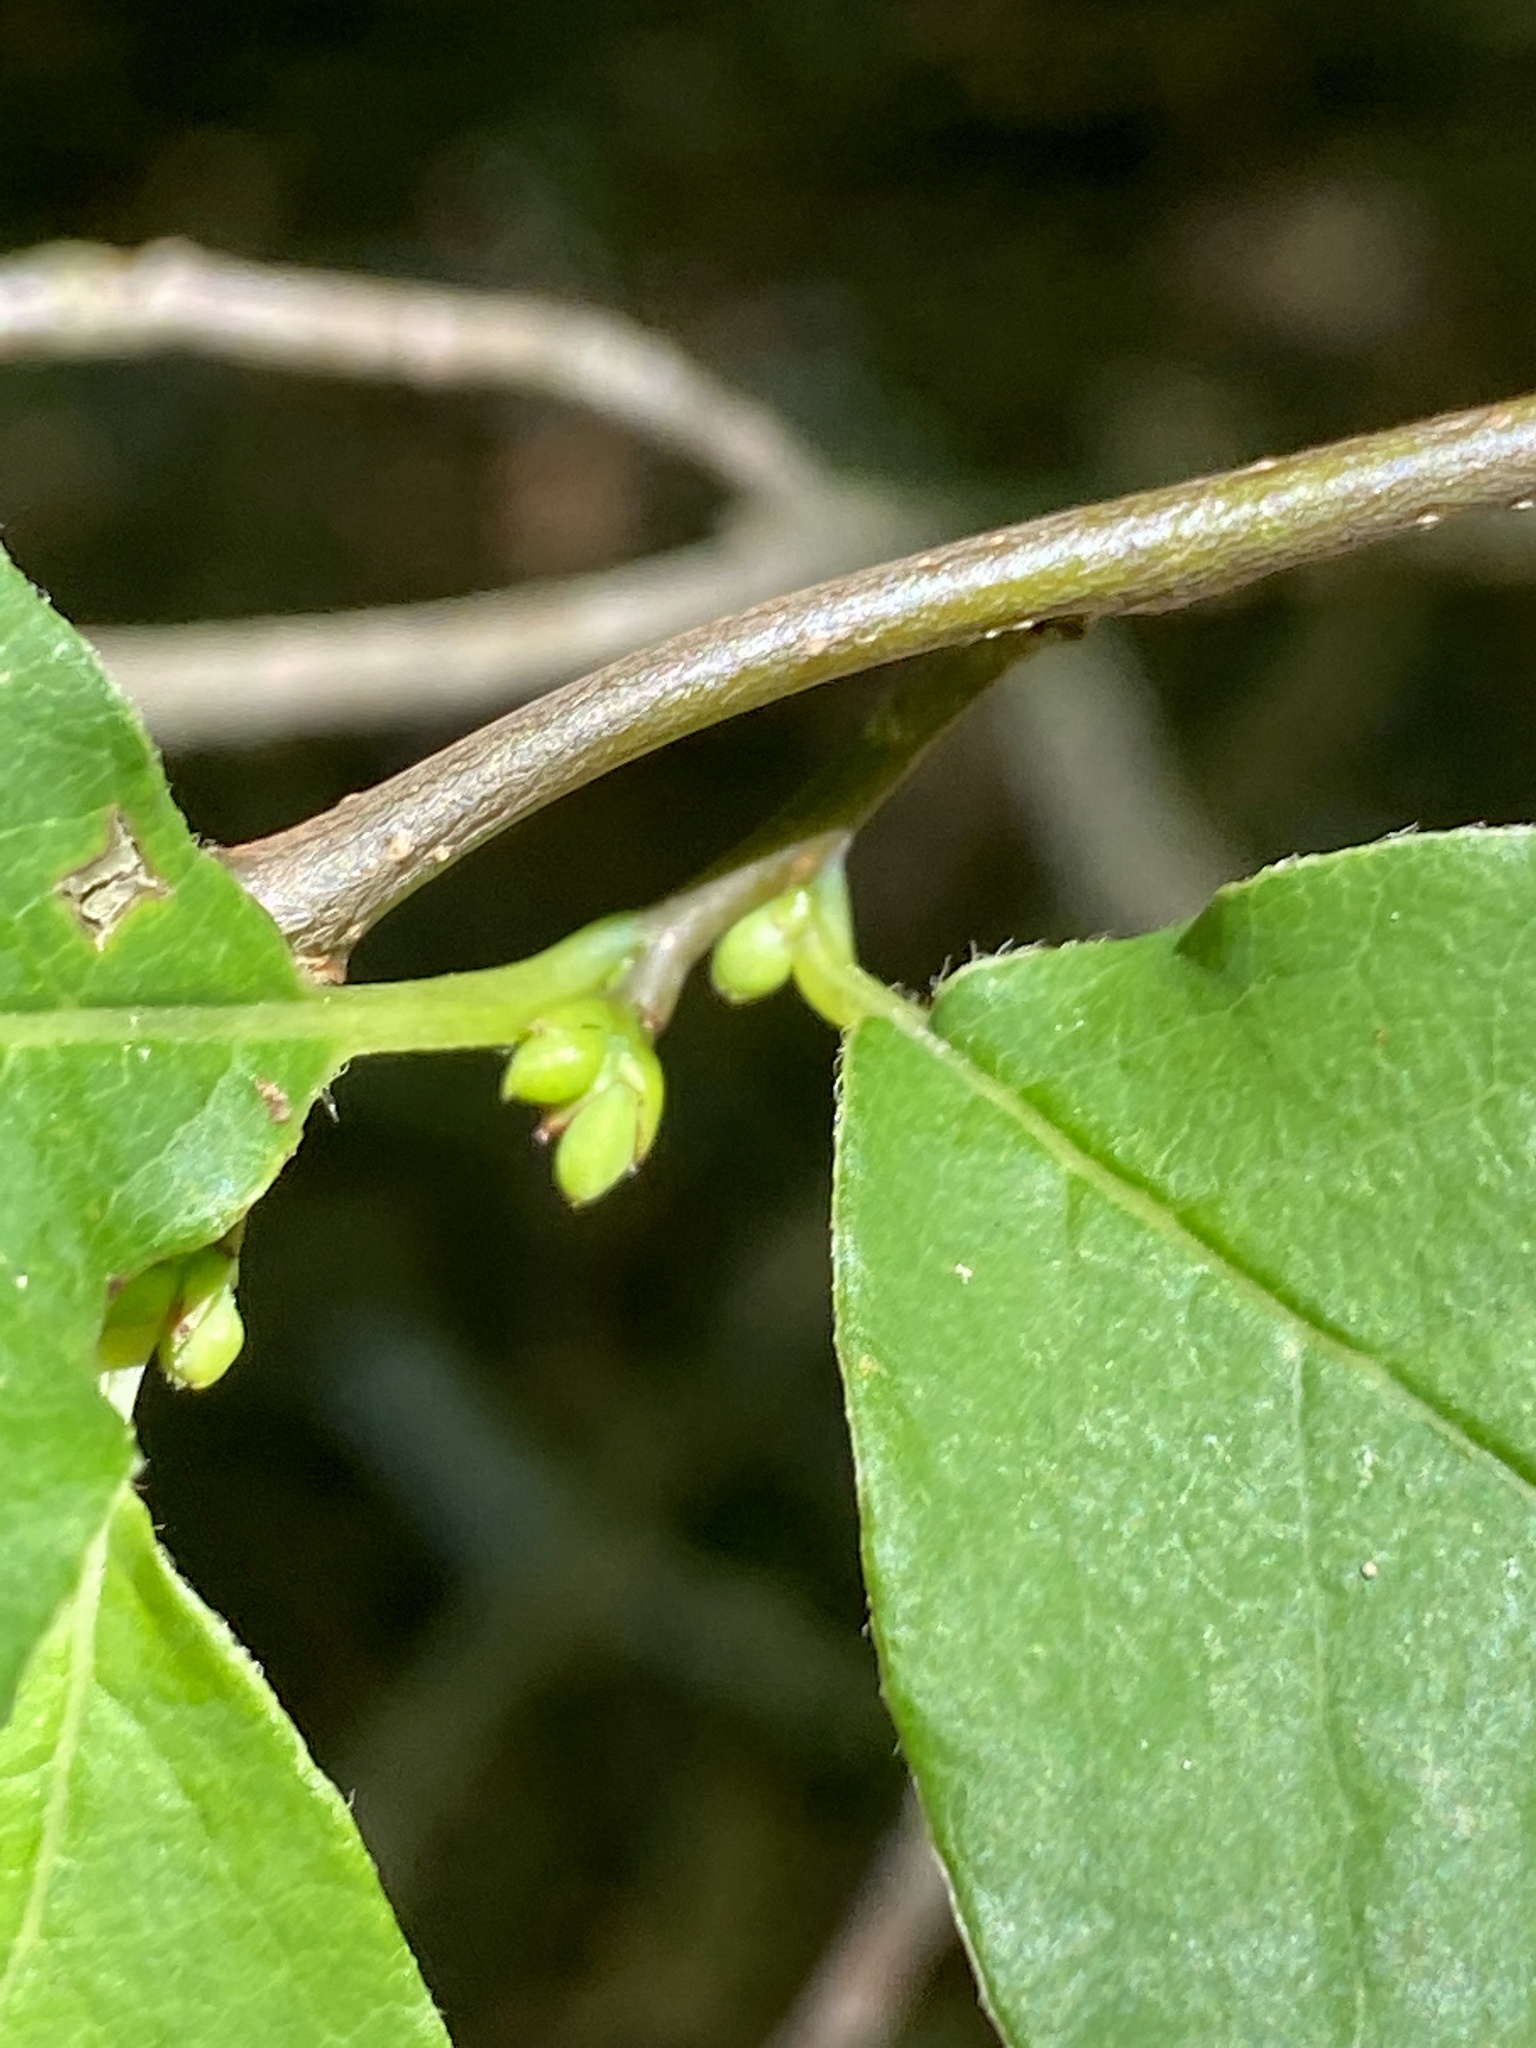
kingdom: Plantae
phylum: Tracheophyta
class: Magnoliopsida
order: Laurales
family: Lauraceae
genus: Lindera
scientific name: Lindera benzoin
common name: Spicebush
